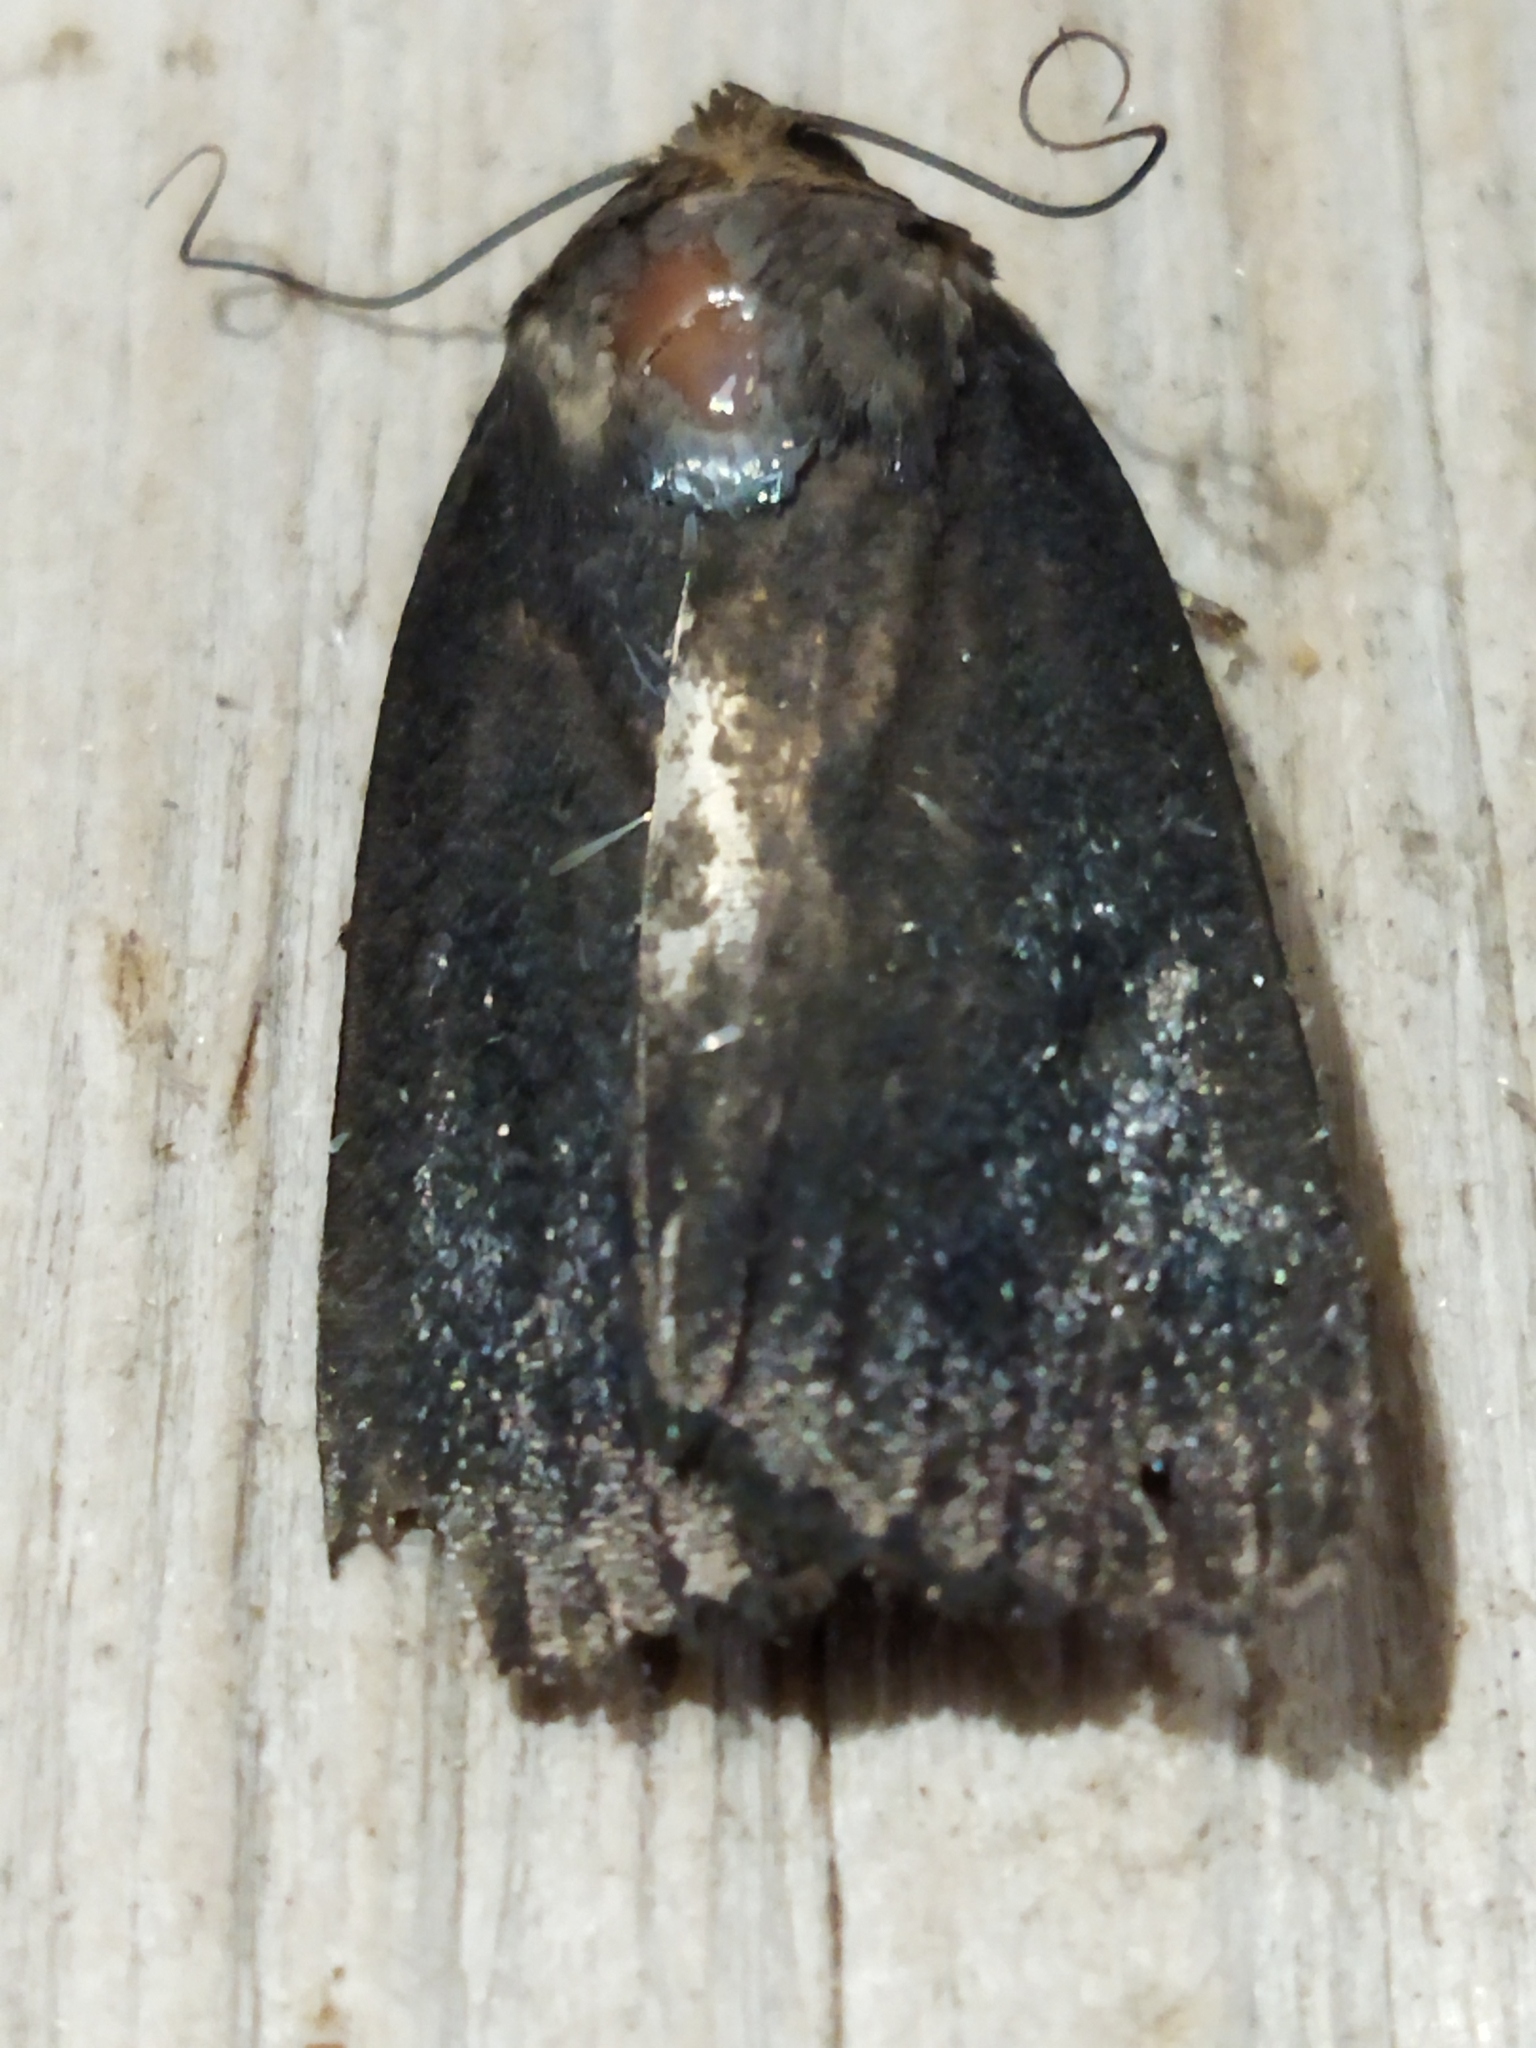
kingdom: Animalia
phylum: Arthropoda
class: Insecta
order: Lepidoptera
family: Noctuidae
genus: Amphipyra
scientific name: Amphipyra livida
